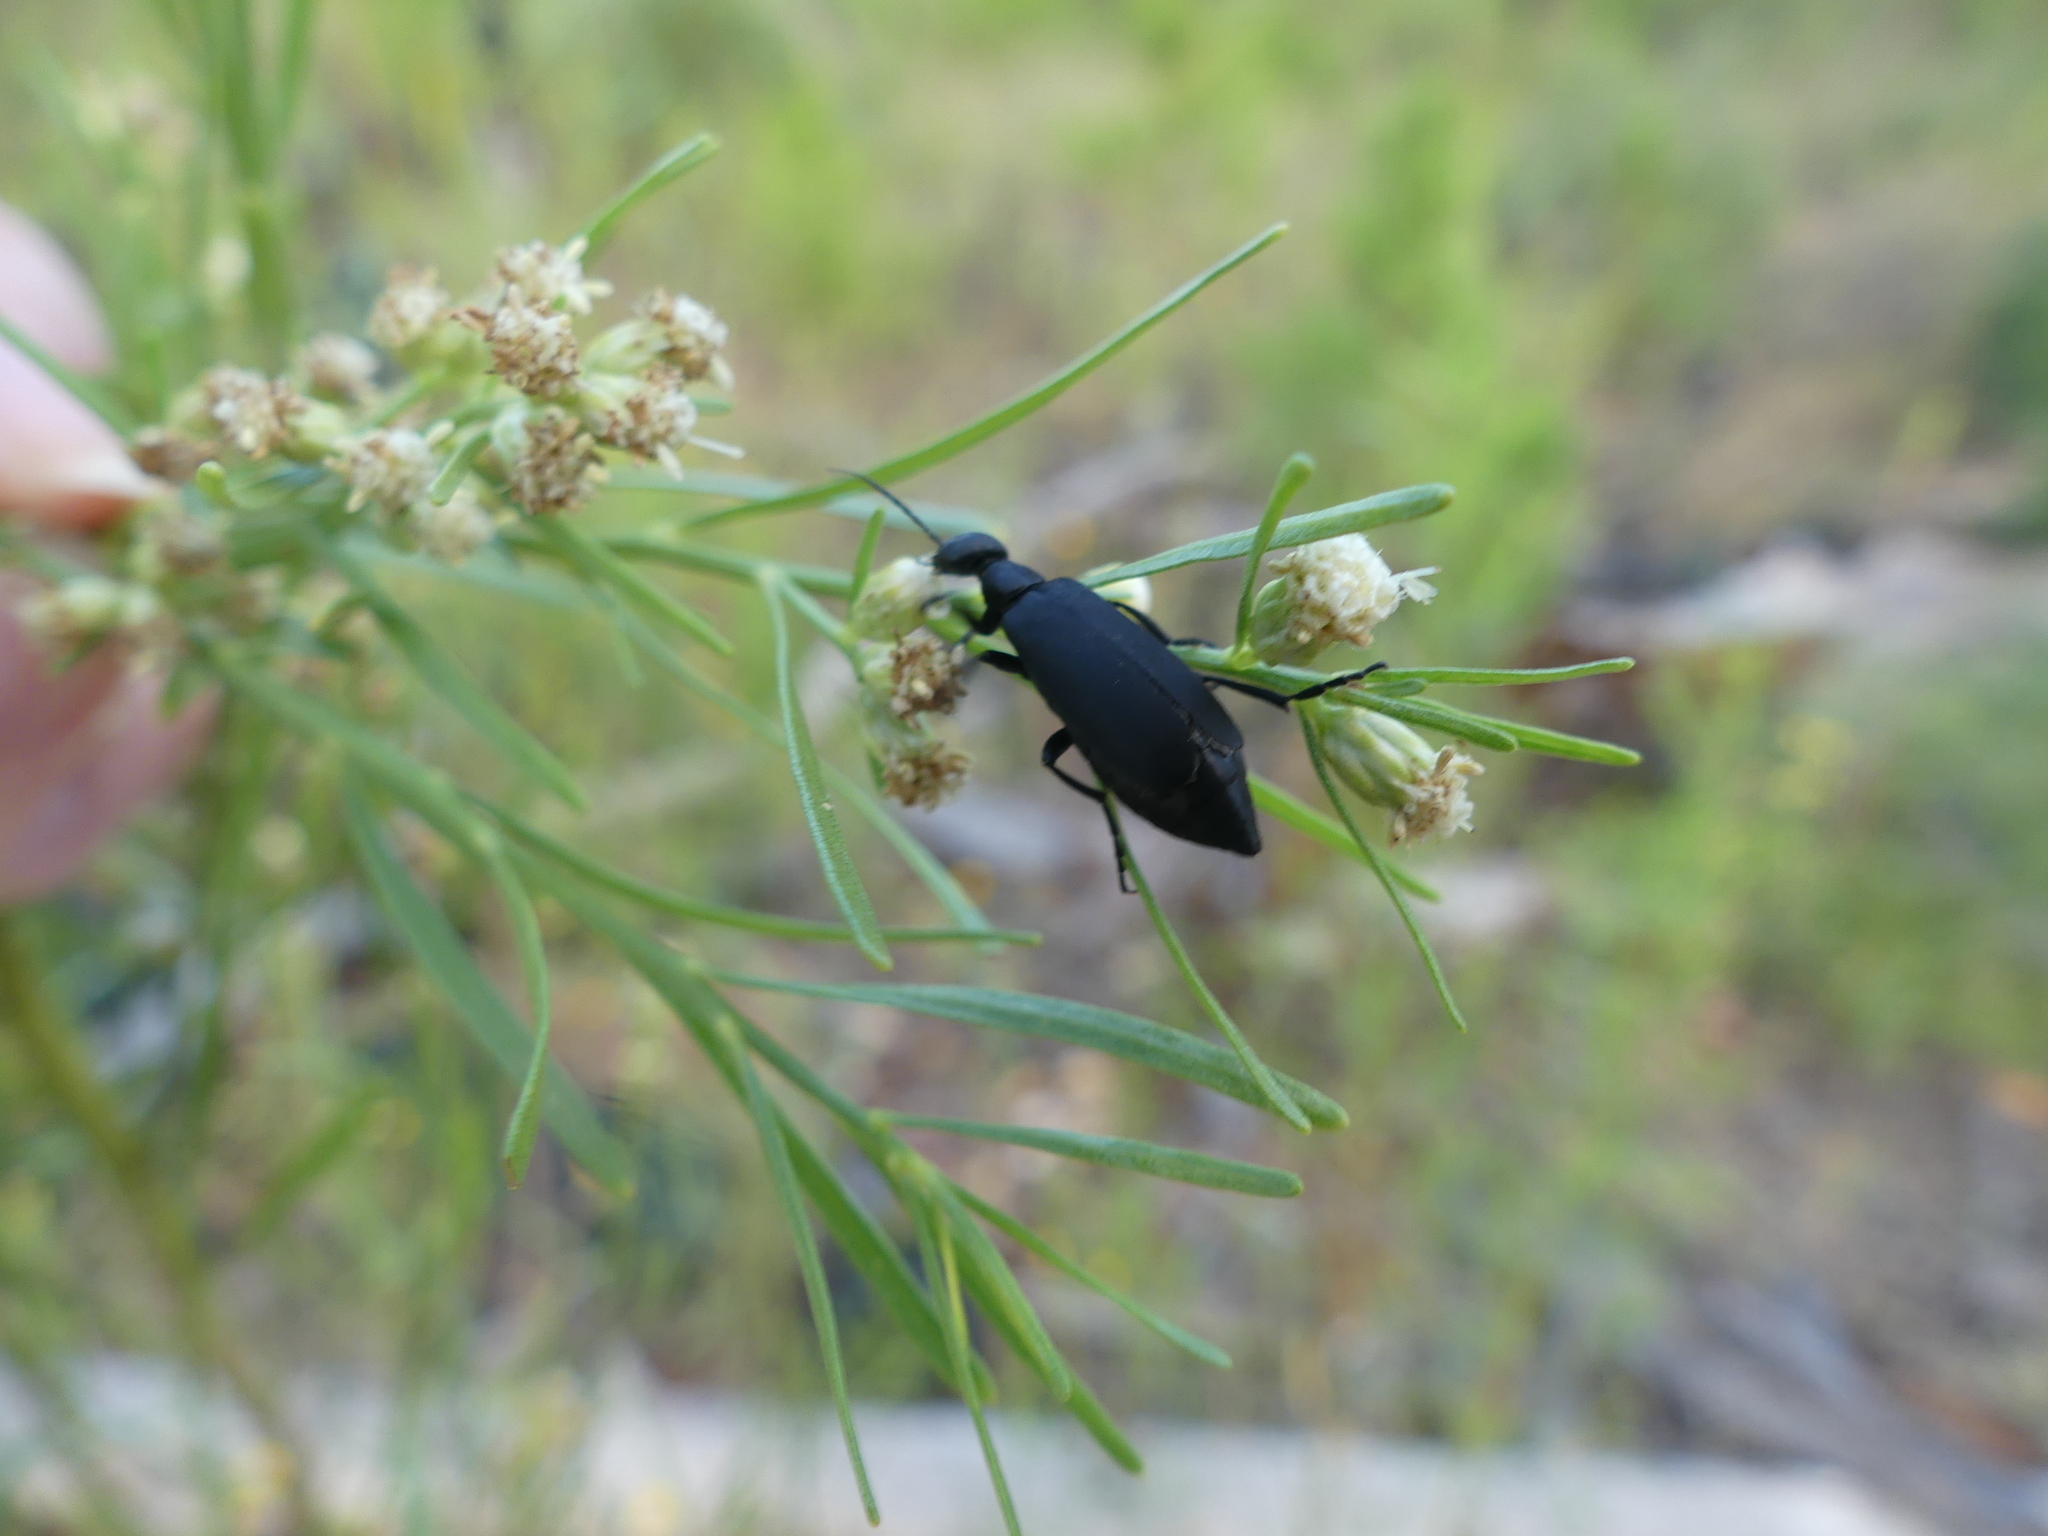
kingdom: Animalia
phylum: Arthropoda
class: Insecta
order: Coleoptera
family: Meloidae
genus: Epicauta
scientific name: Epicauta pensylvanica
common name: Black blister beetle
